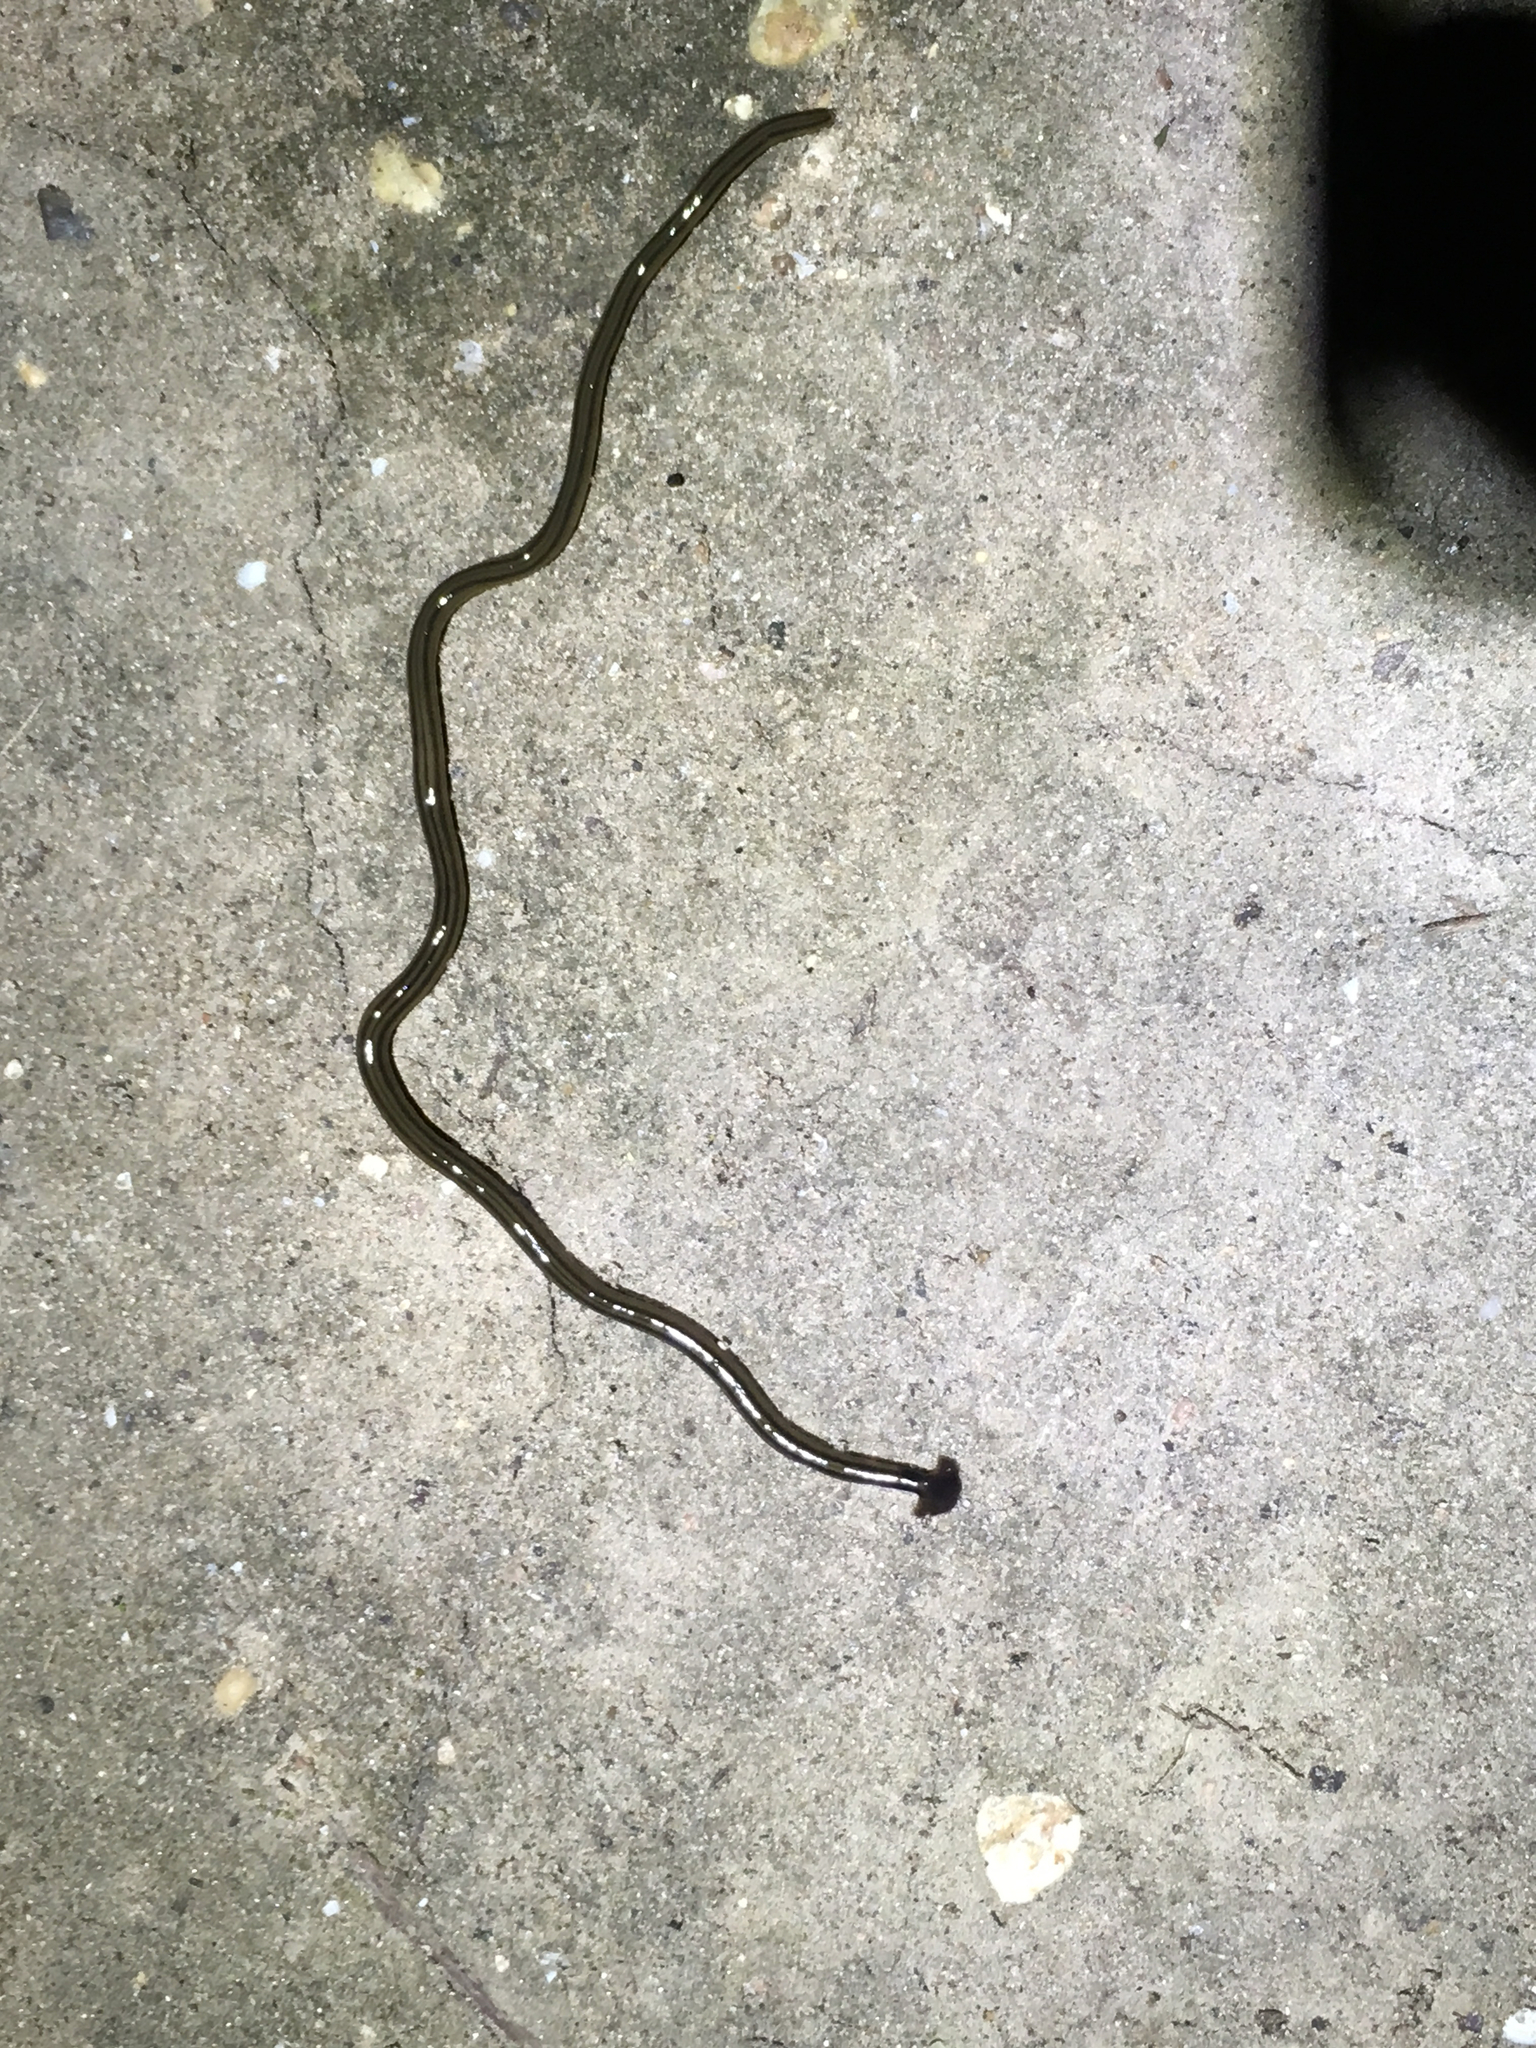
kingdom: Animalia
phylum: Platyhelminthes
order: Tricladida
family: Geoplanidae
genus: Bipalium
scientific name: Bipalium kewense
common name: Hammerhead flatworm
